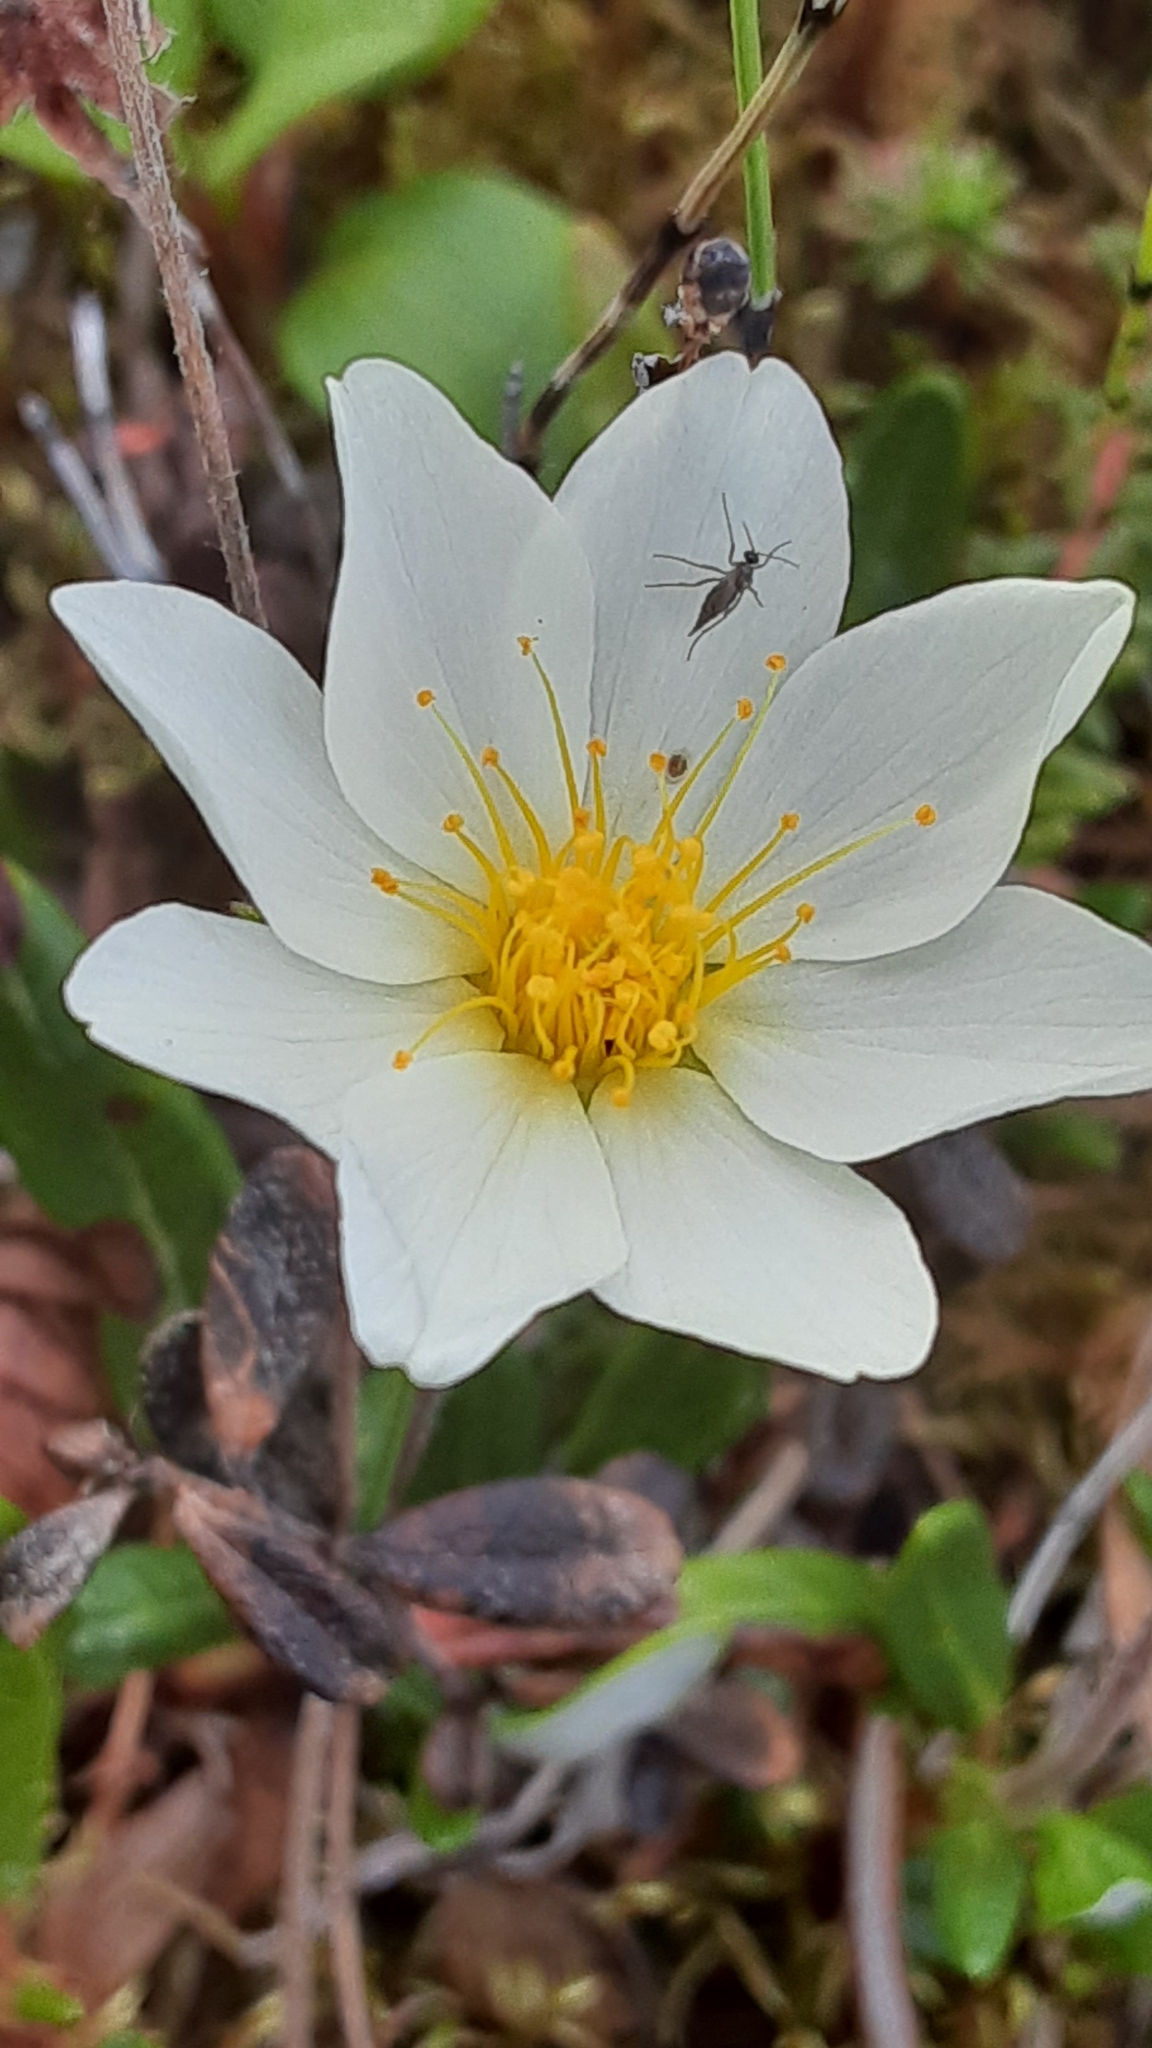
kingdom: Plantae
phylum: Tracheophyta
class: Magnoliopsida
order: Rosales
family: Rosaceae
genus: Dryas
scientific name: Dryas integrifolia
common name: Entire-leaved mountain avens
